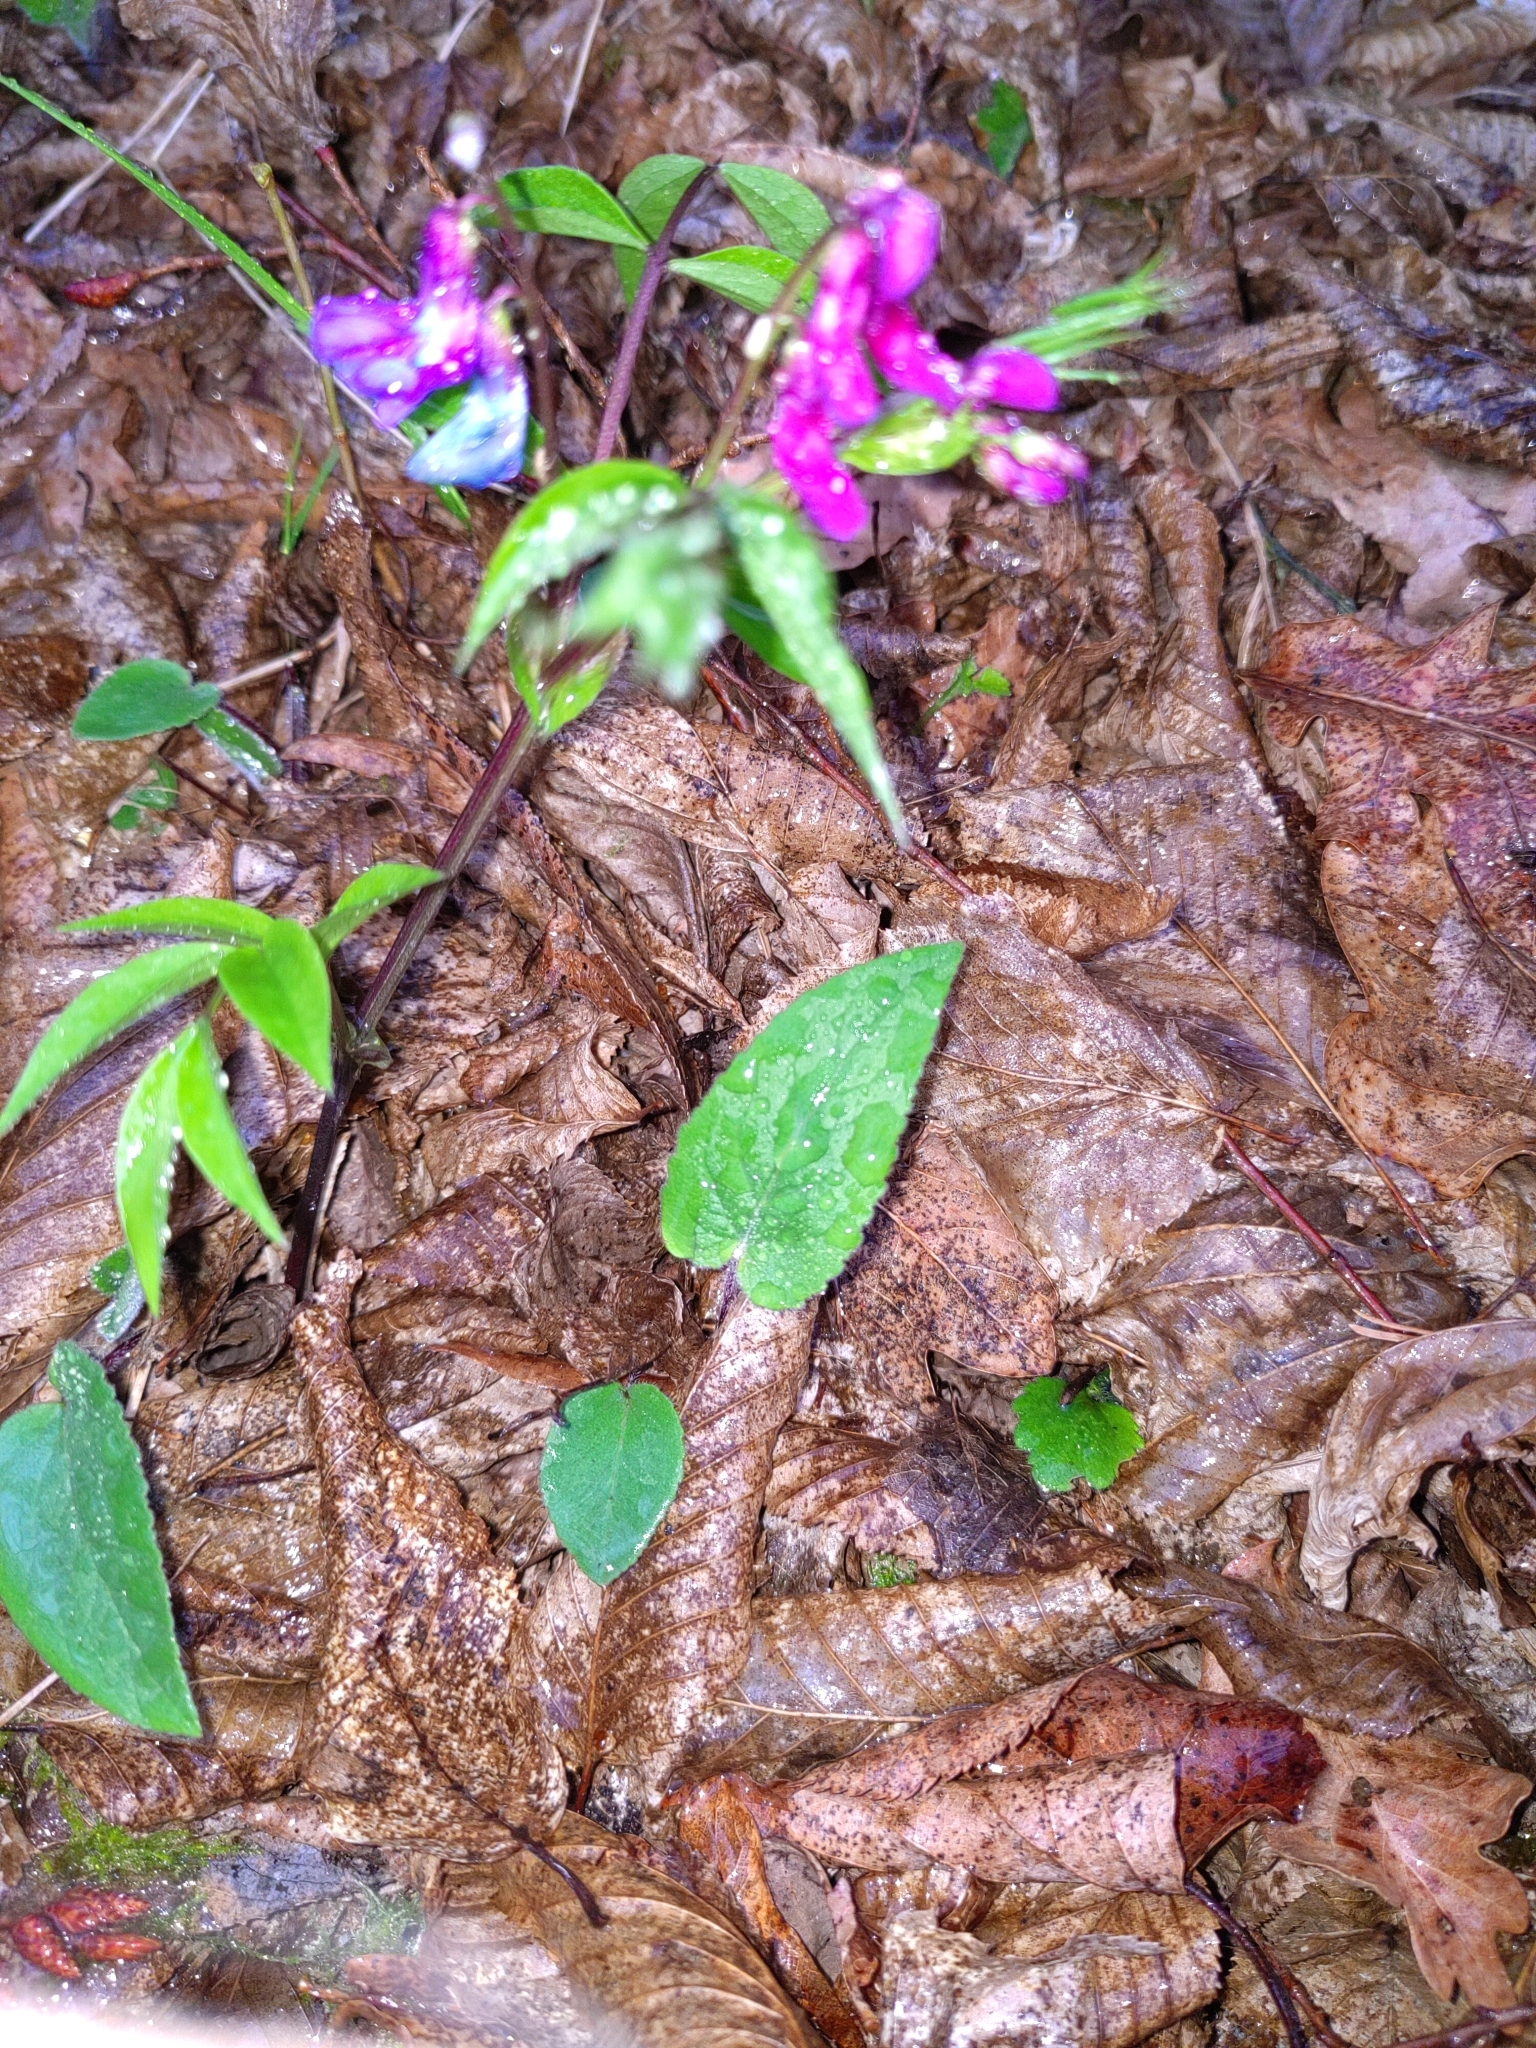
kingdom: Plantae
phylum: Tracheophyta
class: Magnoliopsida
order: Fabales
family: Fabaceae
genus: Lathyrus
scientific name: Lathyrus vernus
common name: Spring pea
